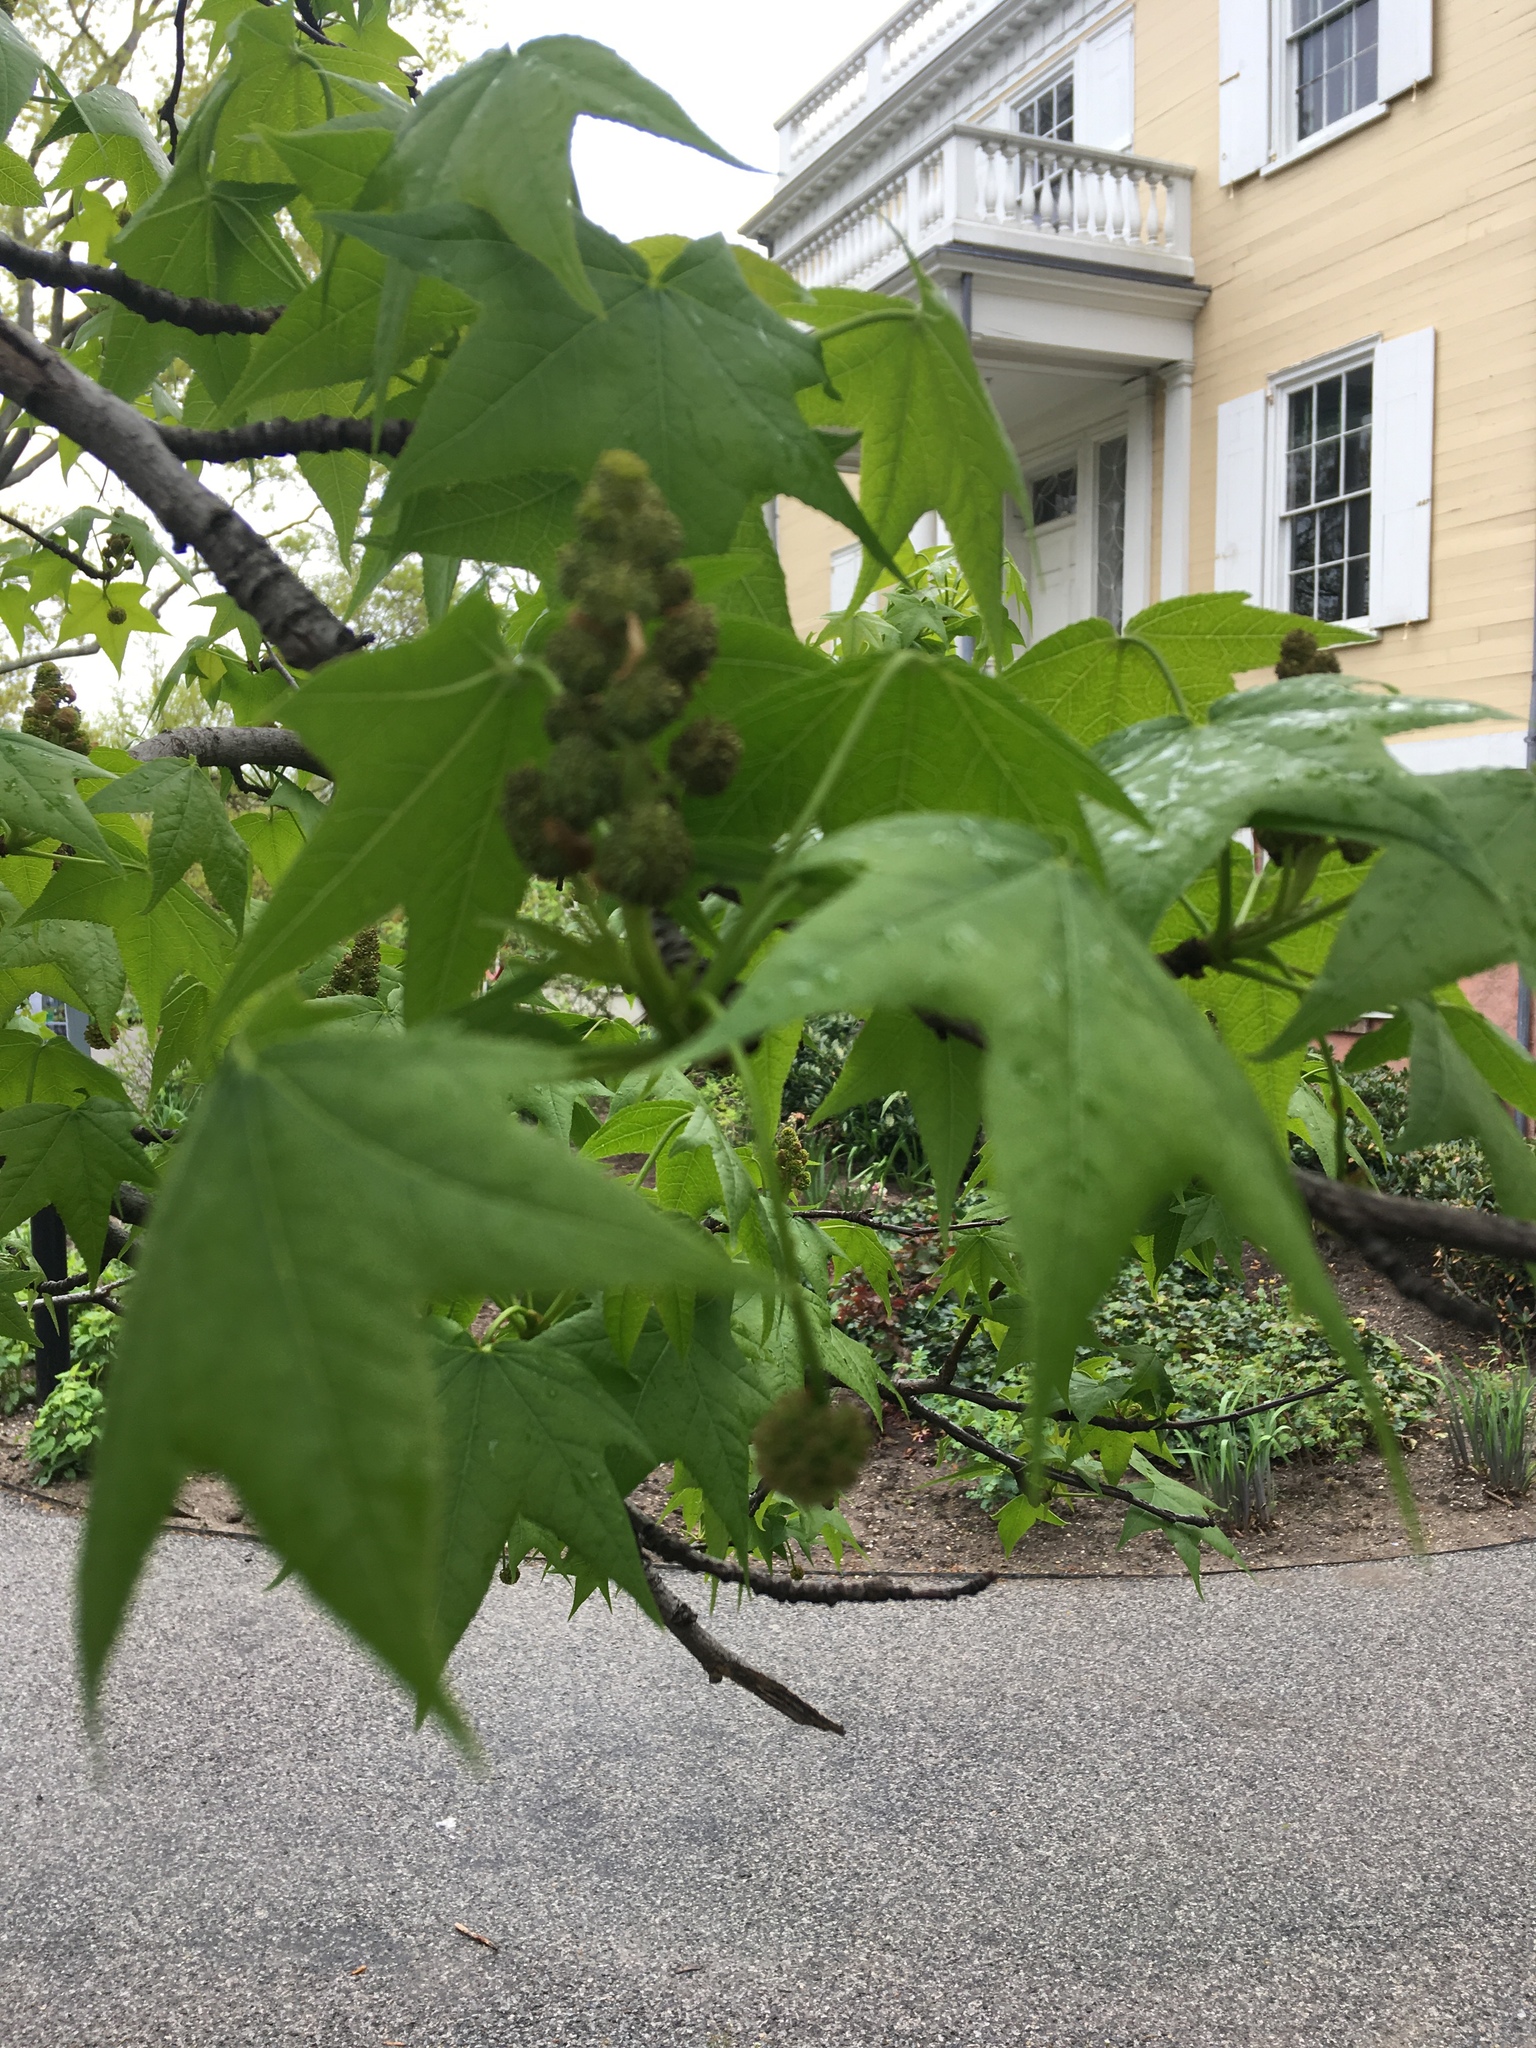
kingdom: Plantae
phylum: Tracheophyta
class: Magnoliopsida
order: Saxifragales
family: Altingiaceae
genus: Liquidambar
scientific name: Liquidambar styraciflua
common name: Sweet gum
